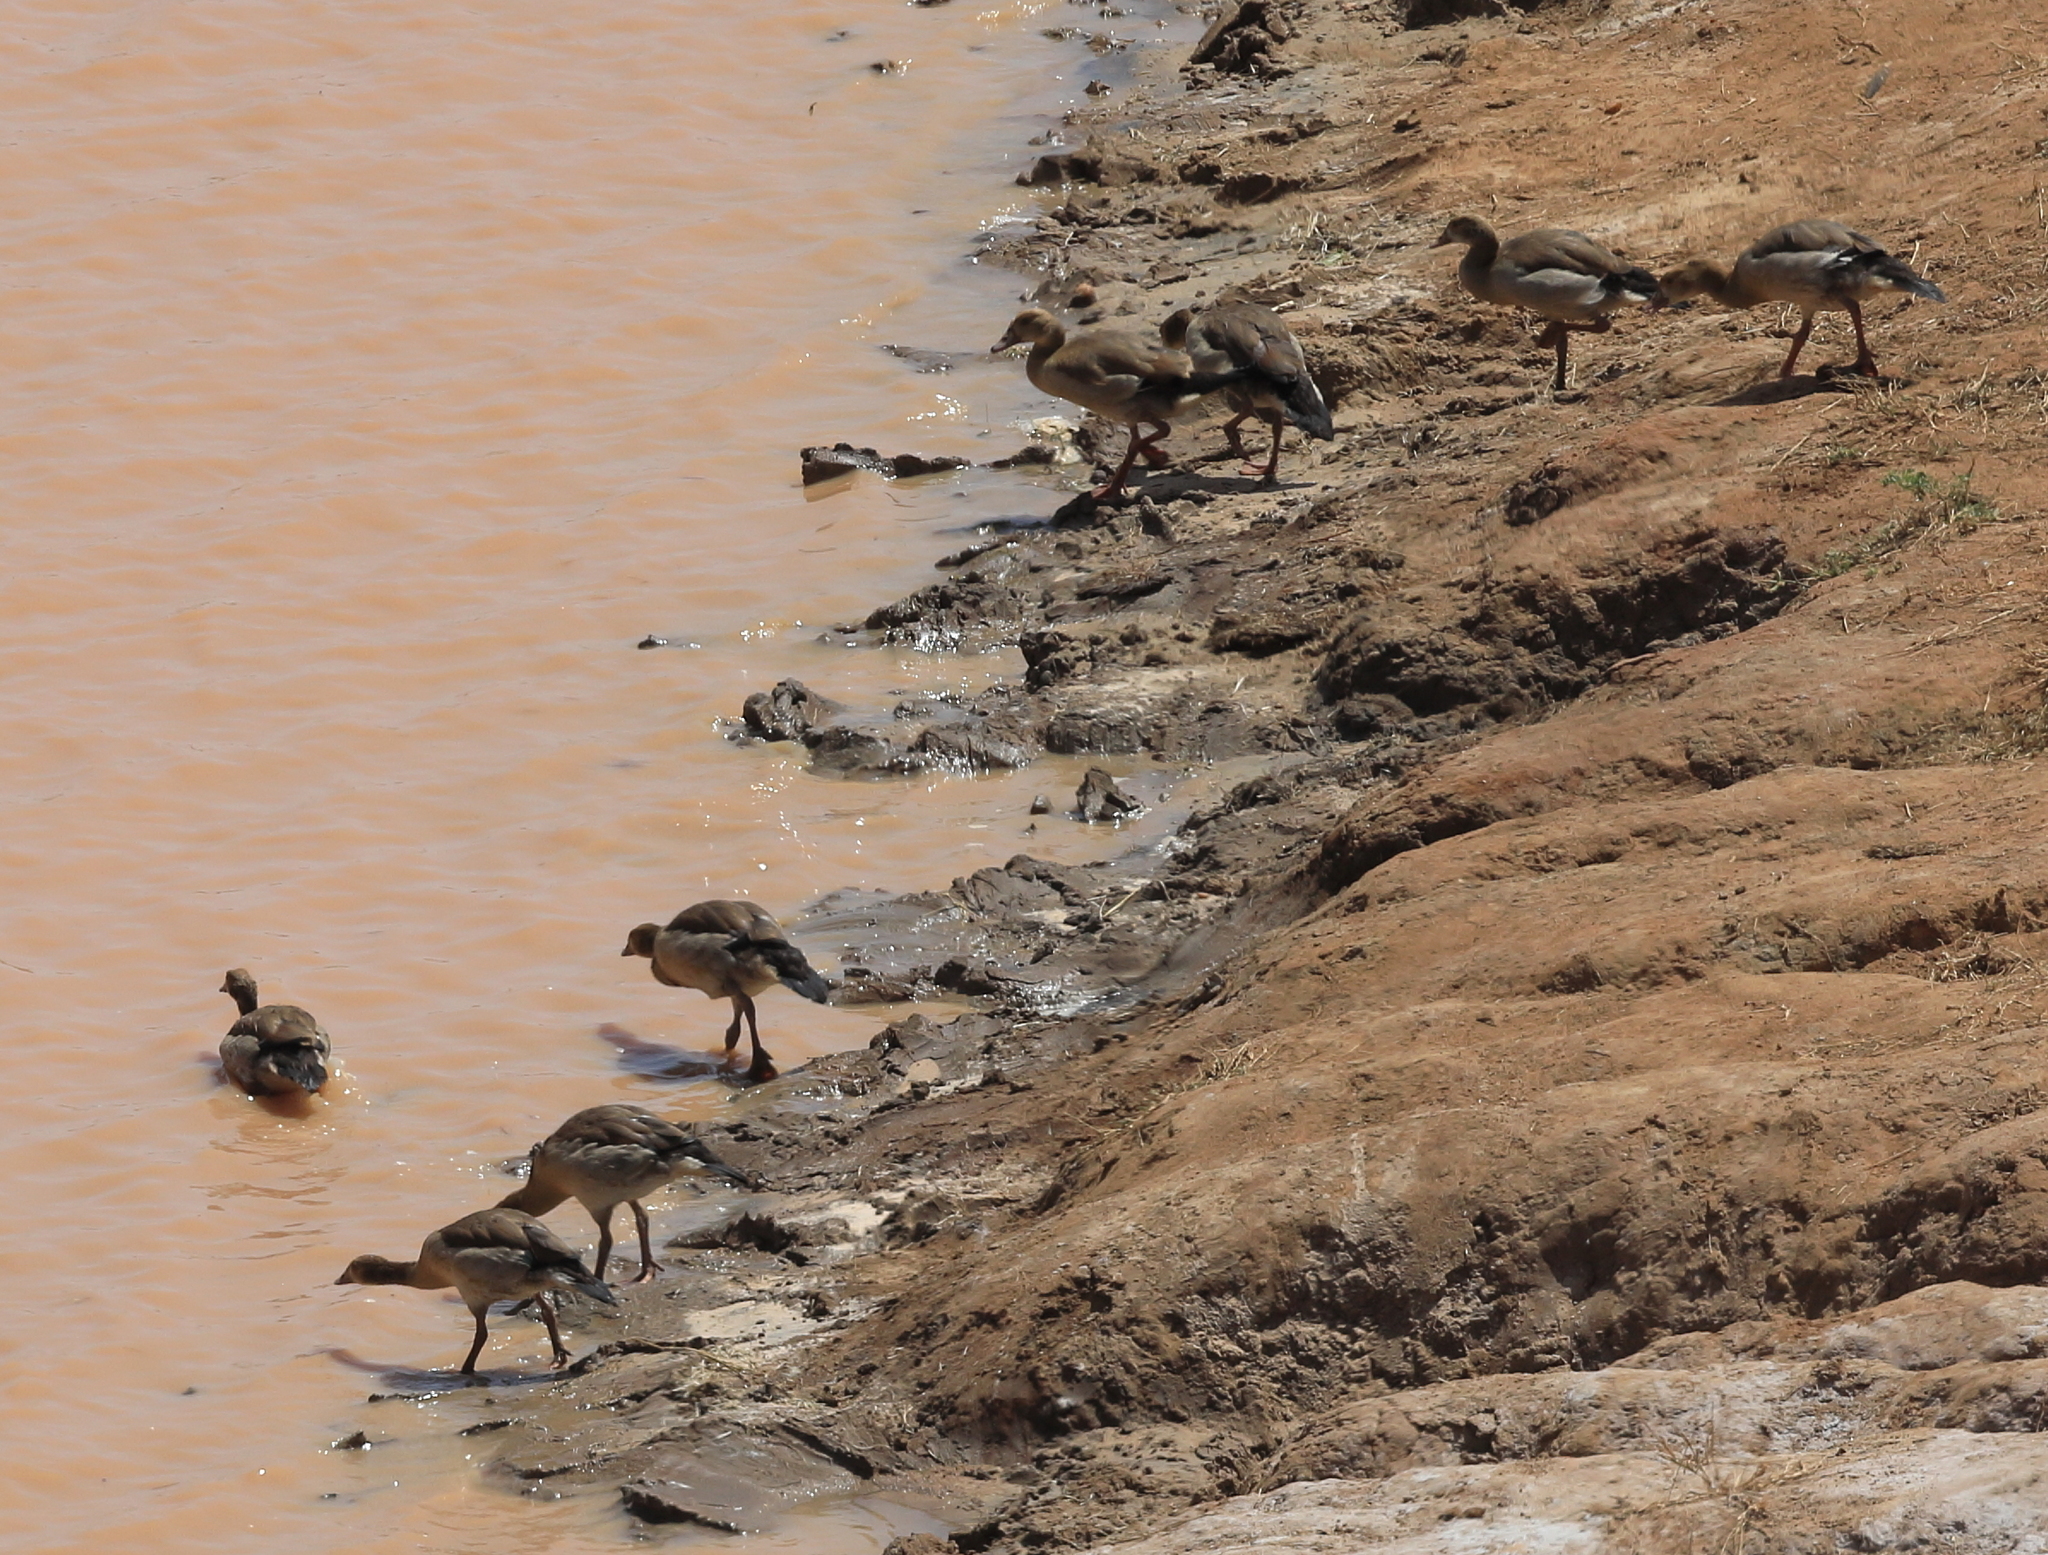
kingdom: Animalia
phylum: Chordata
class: Aves
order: Anseriformes
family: Anatidae
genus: Alopochen
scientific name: Alopochen aegyptiaca
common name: Egyptian goose
